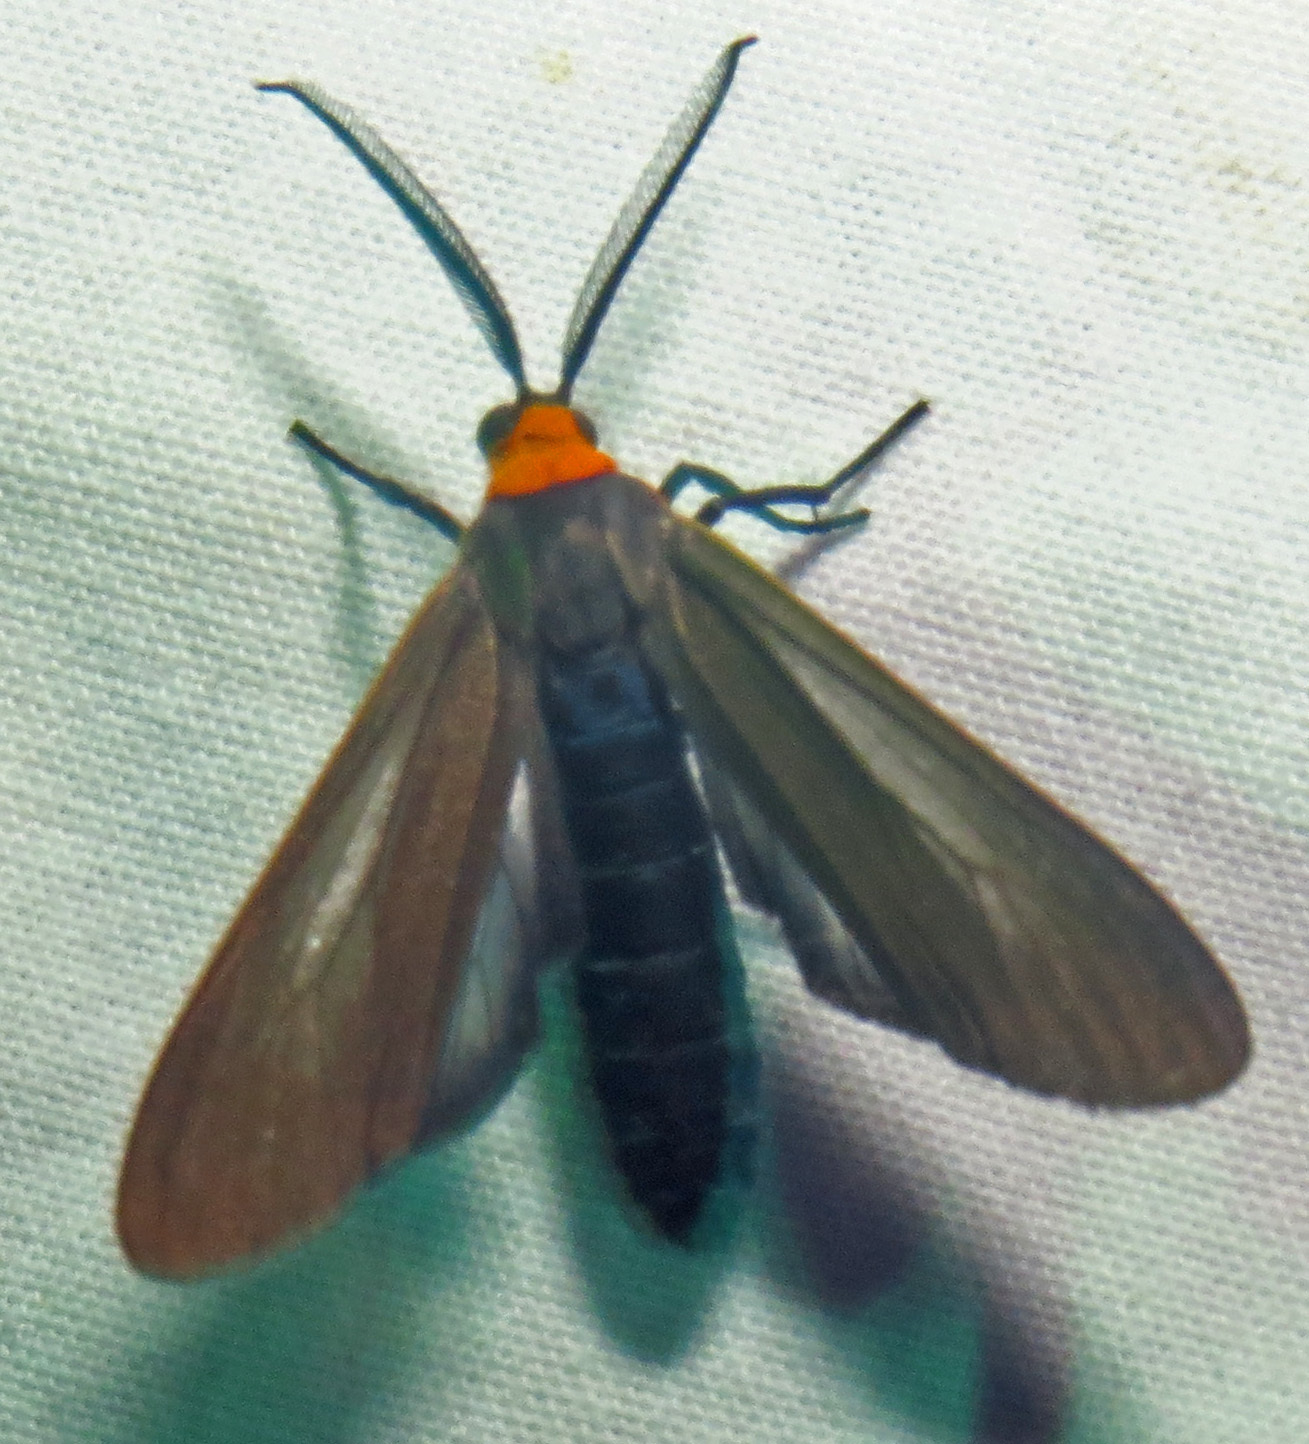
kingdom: Animalia
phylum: Arthropoda
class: Insecta
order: Lepidoptera
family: Erebidae
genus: Cisseps
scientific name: Cisseps fulvicollis
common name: Yellow-collared scape moth
